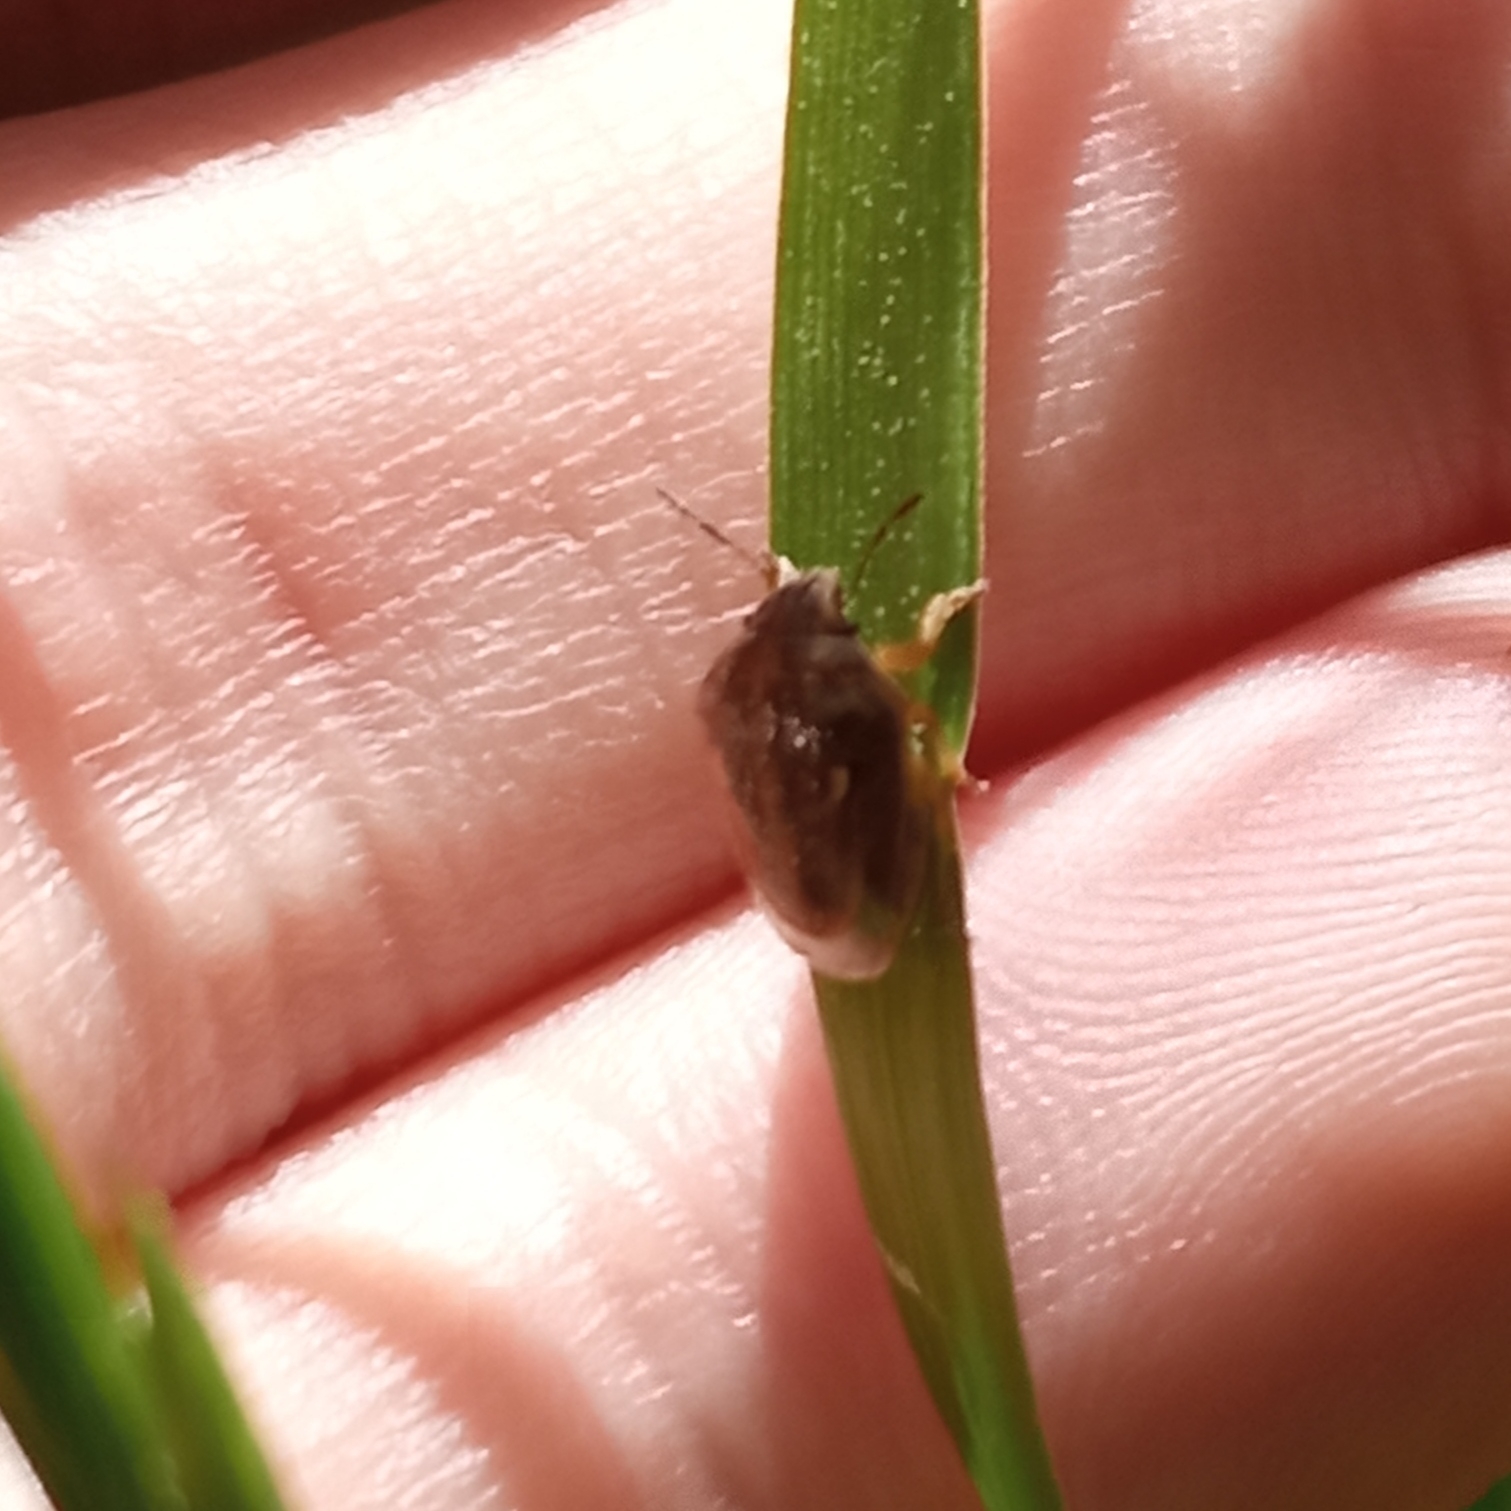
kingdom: Animalia
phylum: Arthropoda
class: Insecta
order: Hemiptera
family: Pentatomidae
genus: Neottiglossa
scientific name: Neottiglossa leporina
